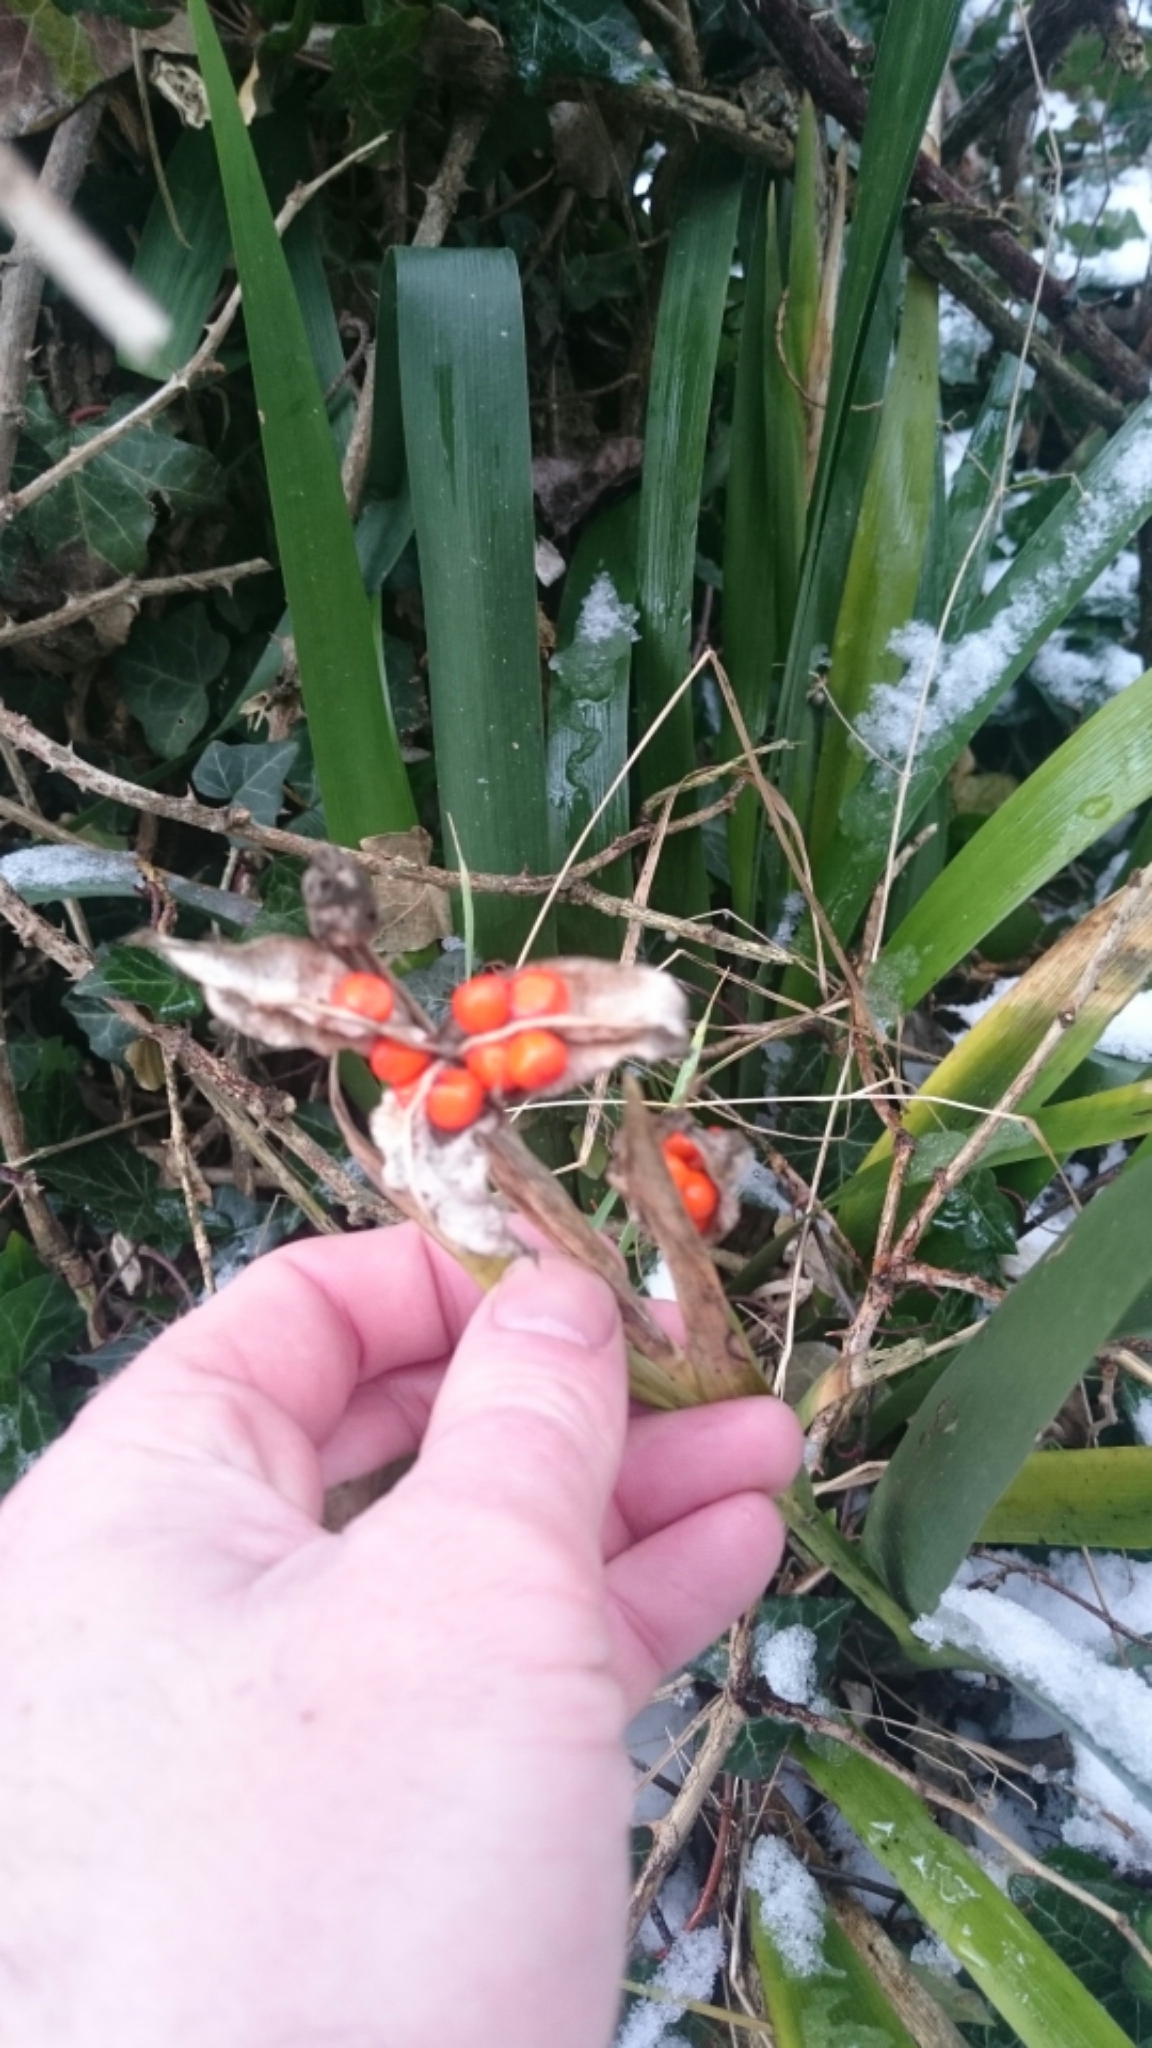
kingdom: Plantae
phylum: Tracheophyta
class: Liliopsida
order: Asparagales
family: Iridaceae
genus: Iris
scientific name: Iris foetidissima
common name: Stinking iris
